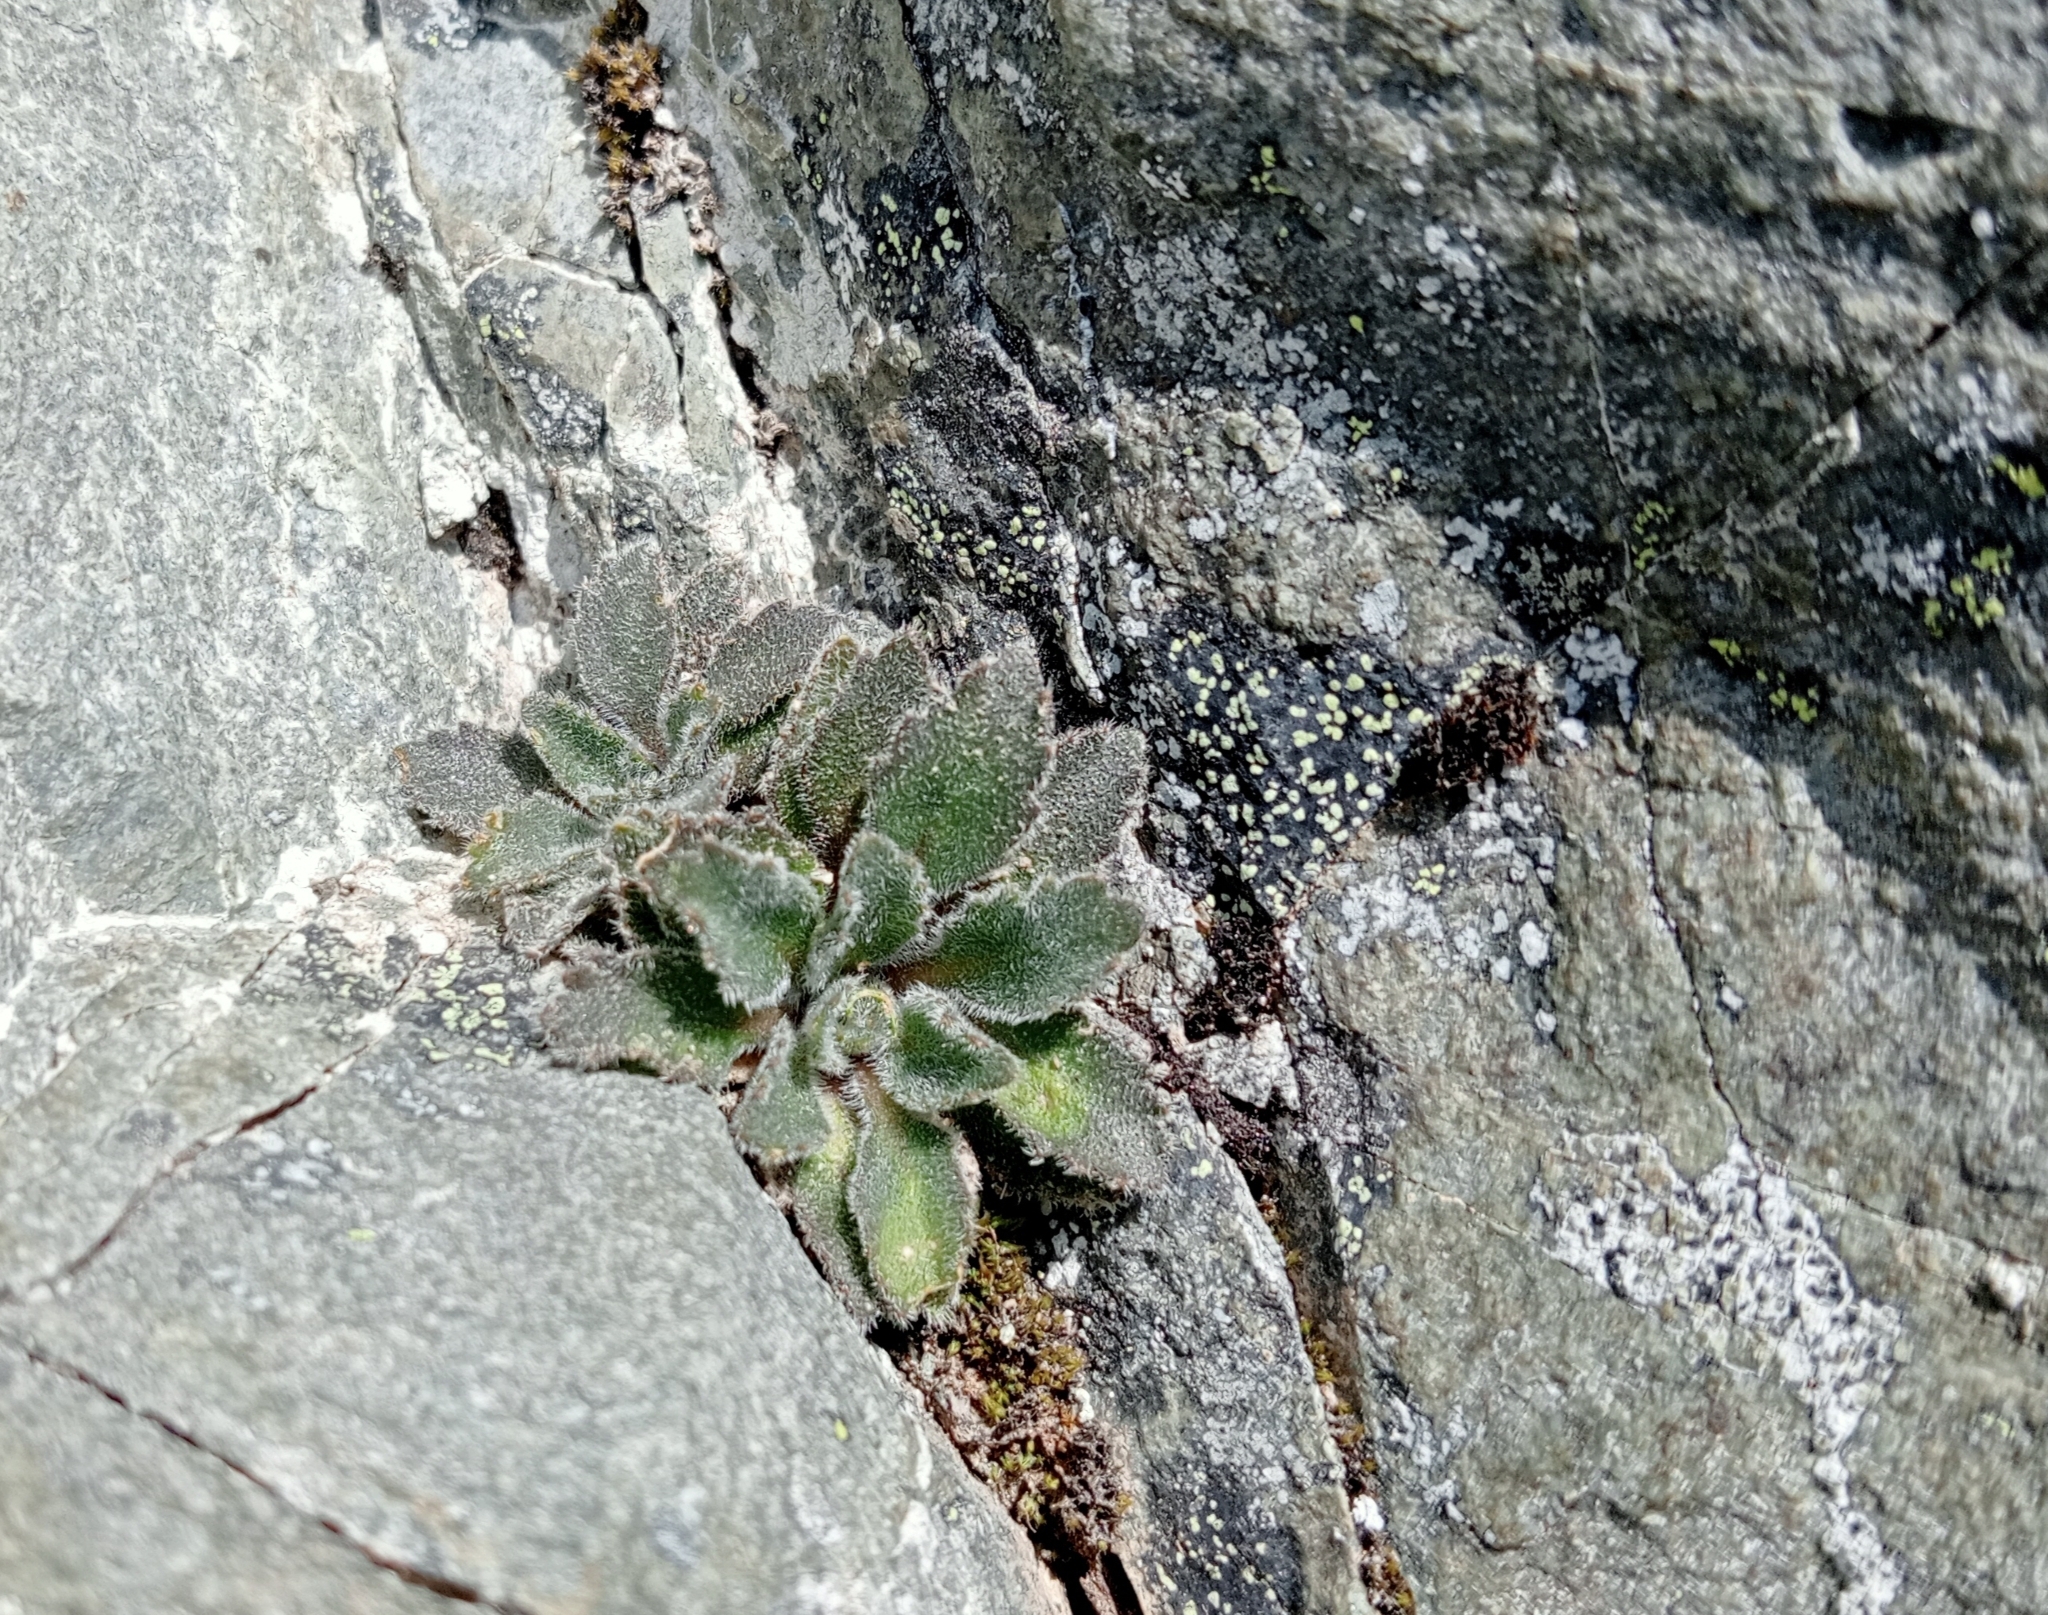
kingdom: Plantae
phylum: Tracheophyta
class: Magnoliopsida
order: Brassicales
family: Brassicaceae
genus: Pachycladon
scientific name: Pachycladon enysii
